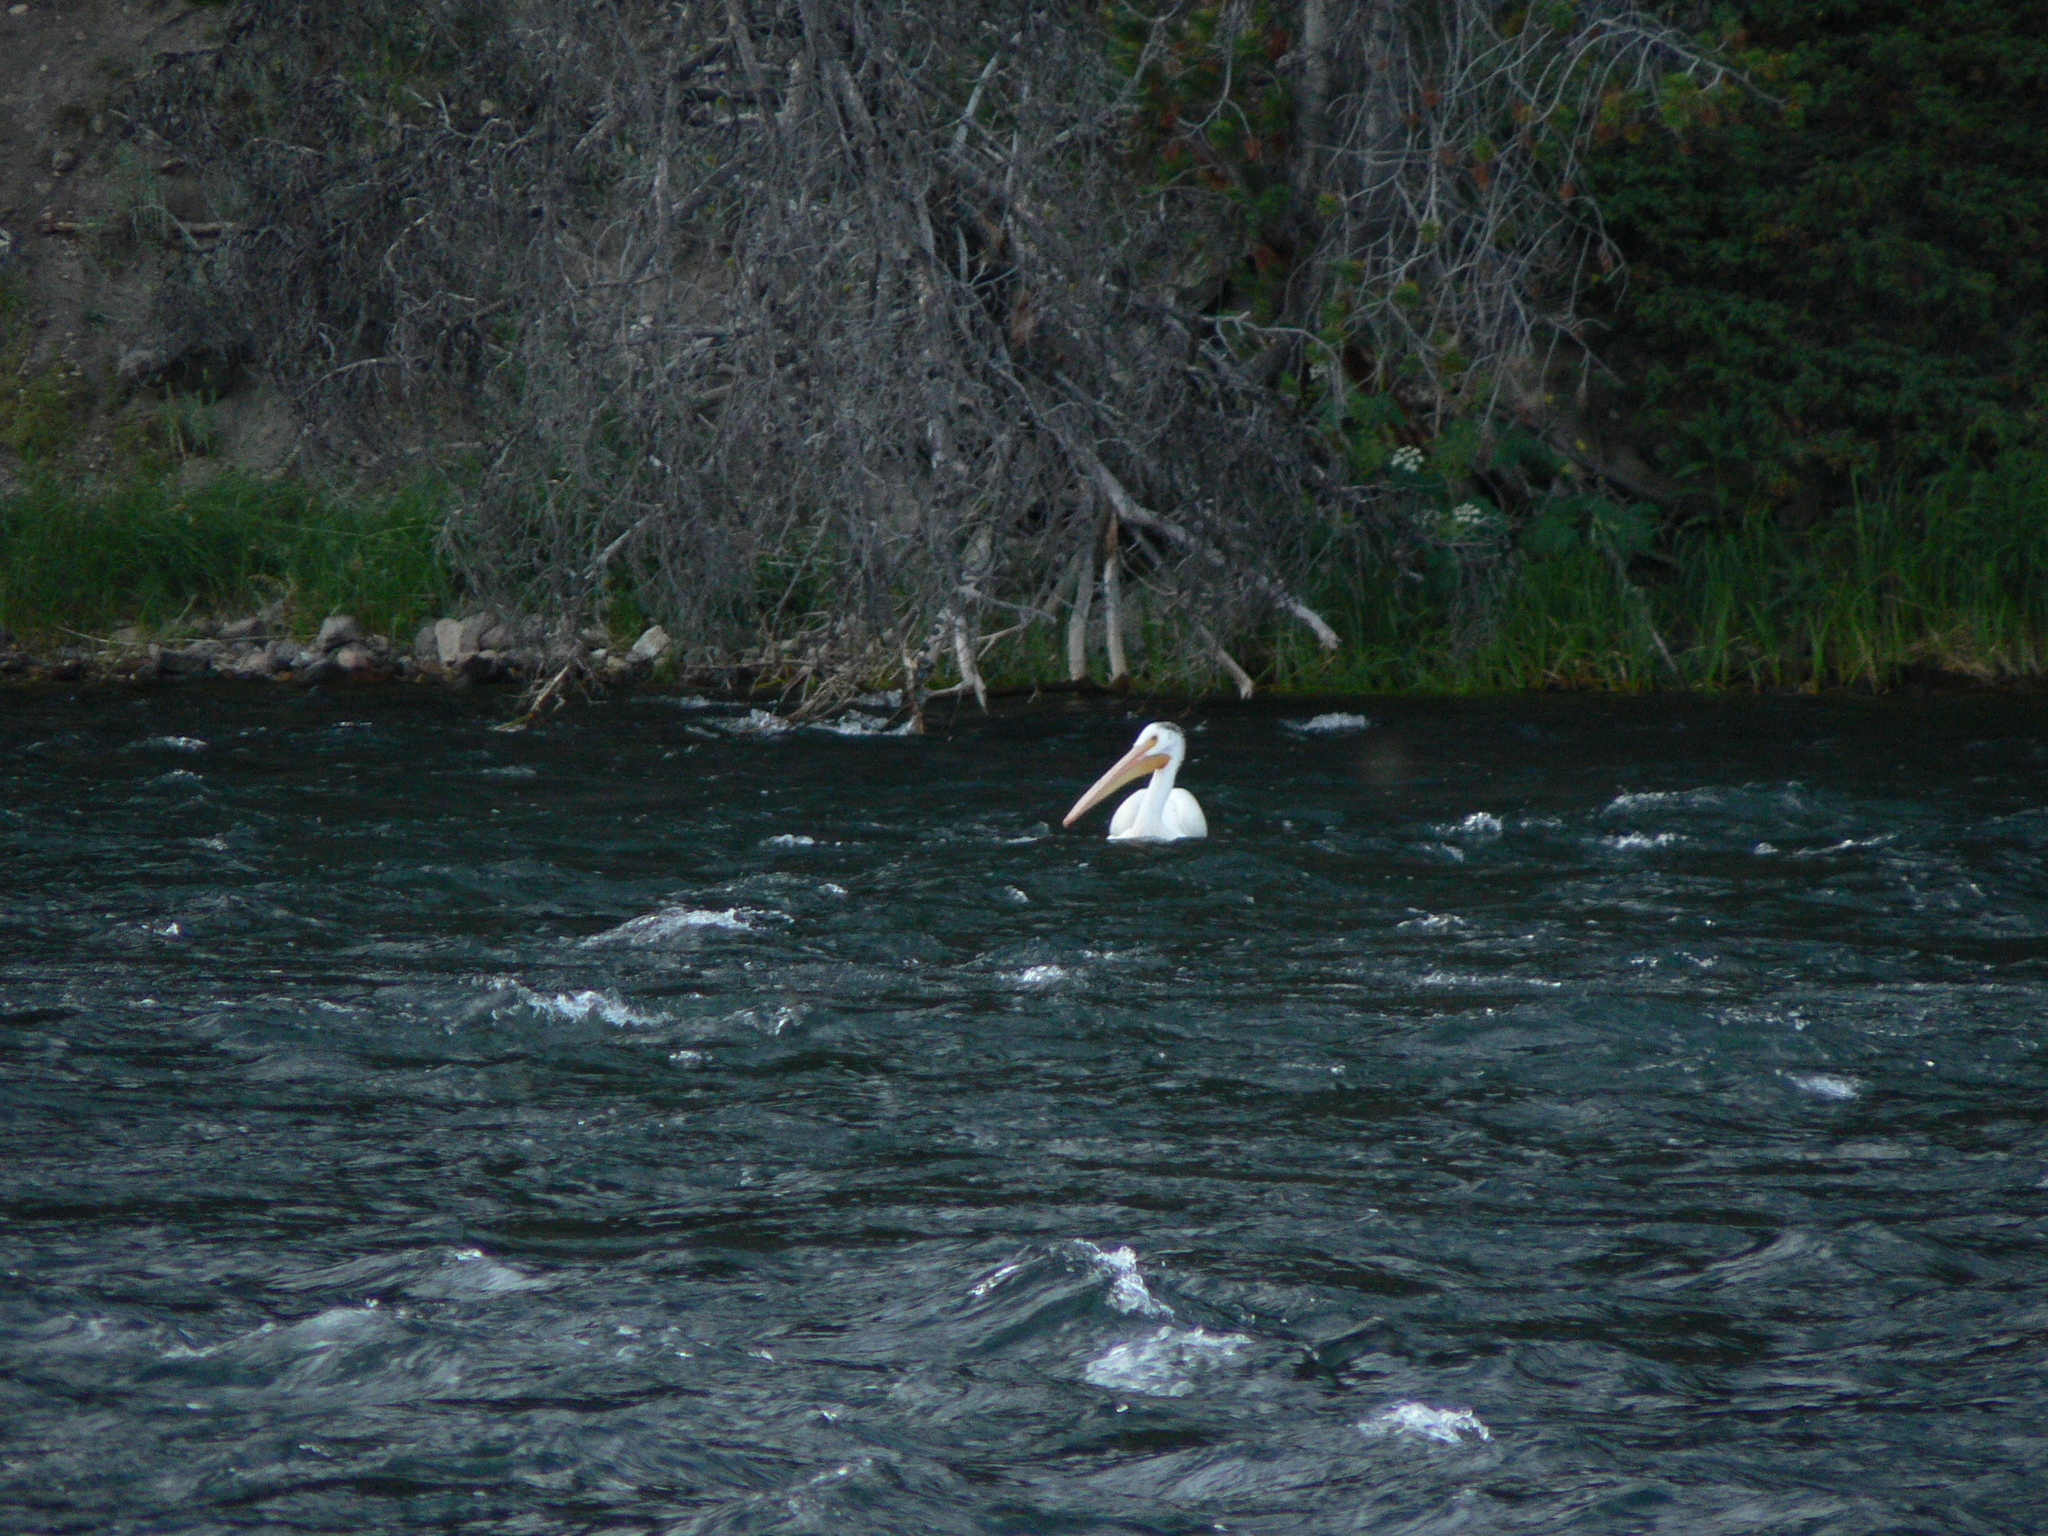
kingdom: Animalia
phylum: Chordata
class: Aves
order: Pelecaniformes
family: Pelecanidae
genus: Pelecanus
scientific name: Pelecanus erythrorhynchos
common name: American white pelican
